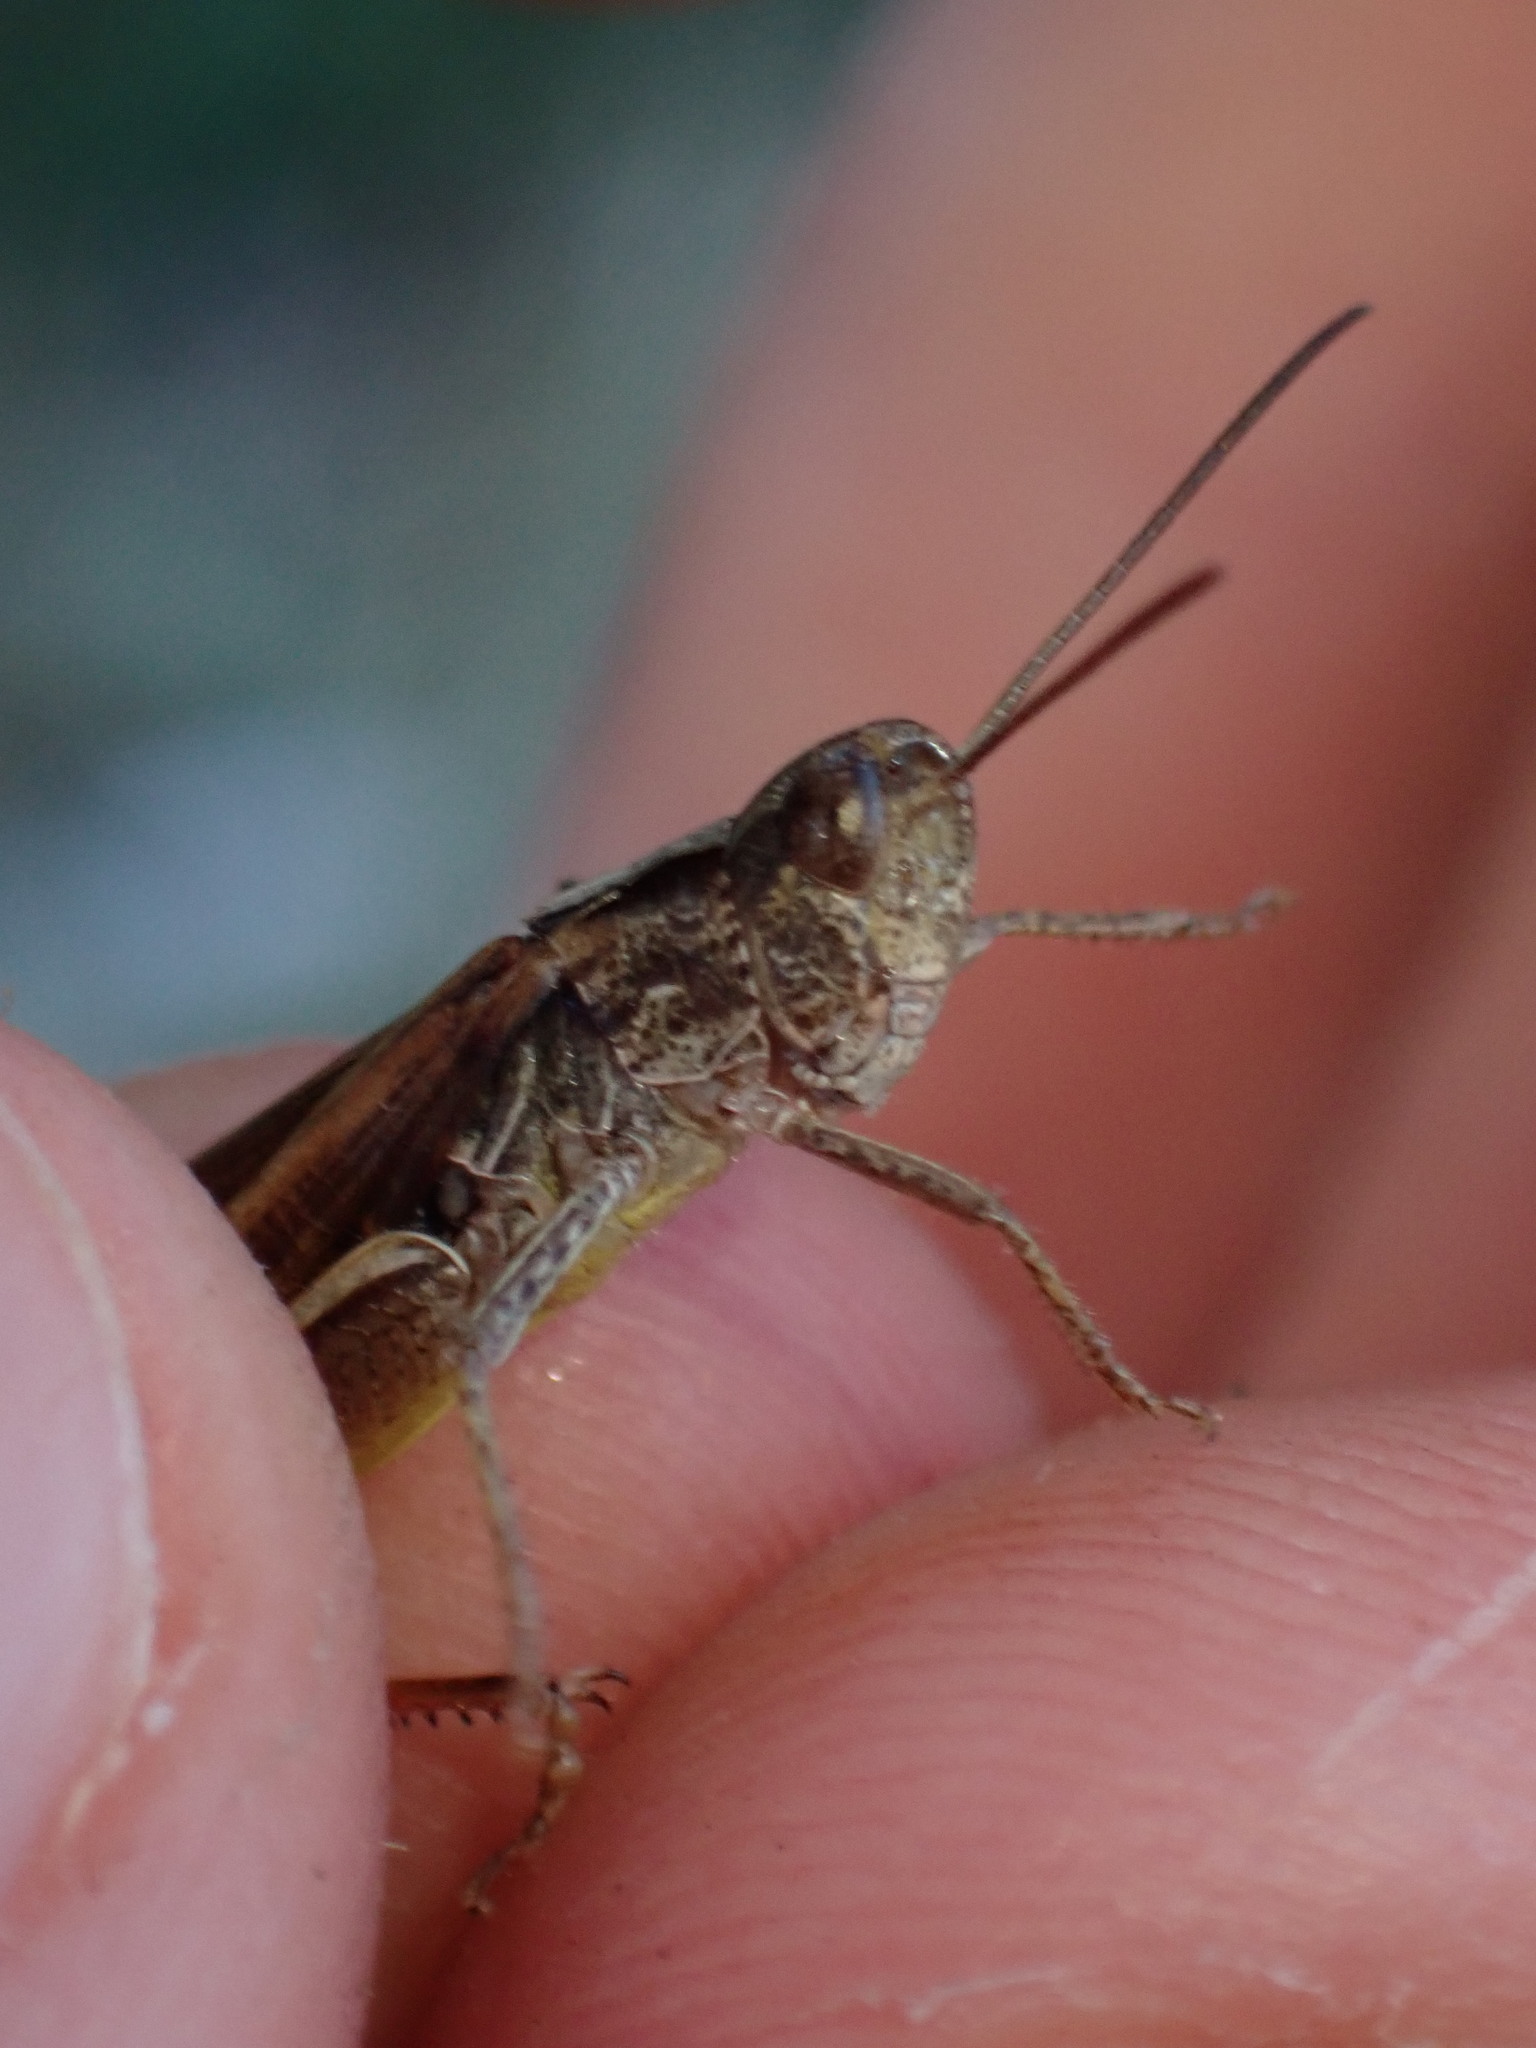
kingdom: Animalia
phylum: Arthropoda
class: Insecta
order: Orthoptera
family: Acrididae
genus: Chorthippus
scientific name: Chorthippus vagans
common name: Heath grasshopper
